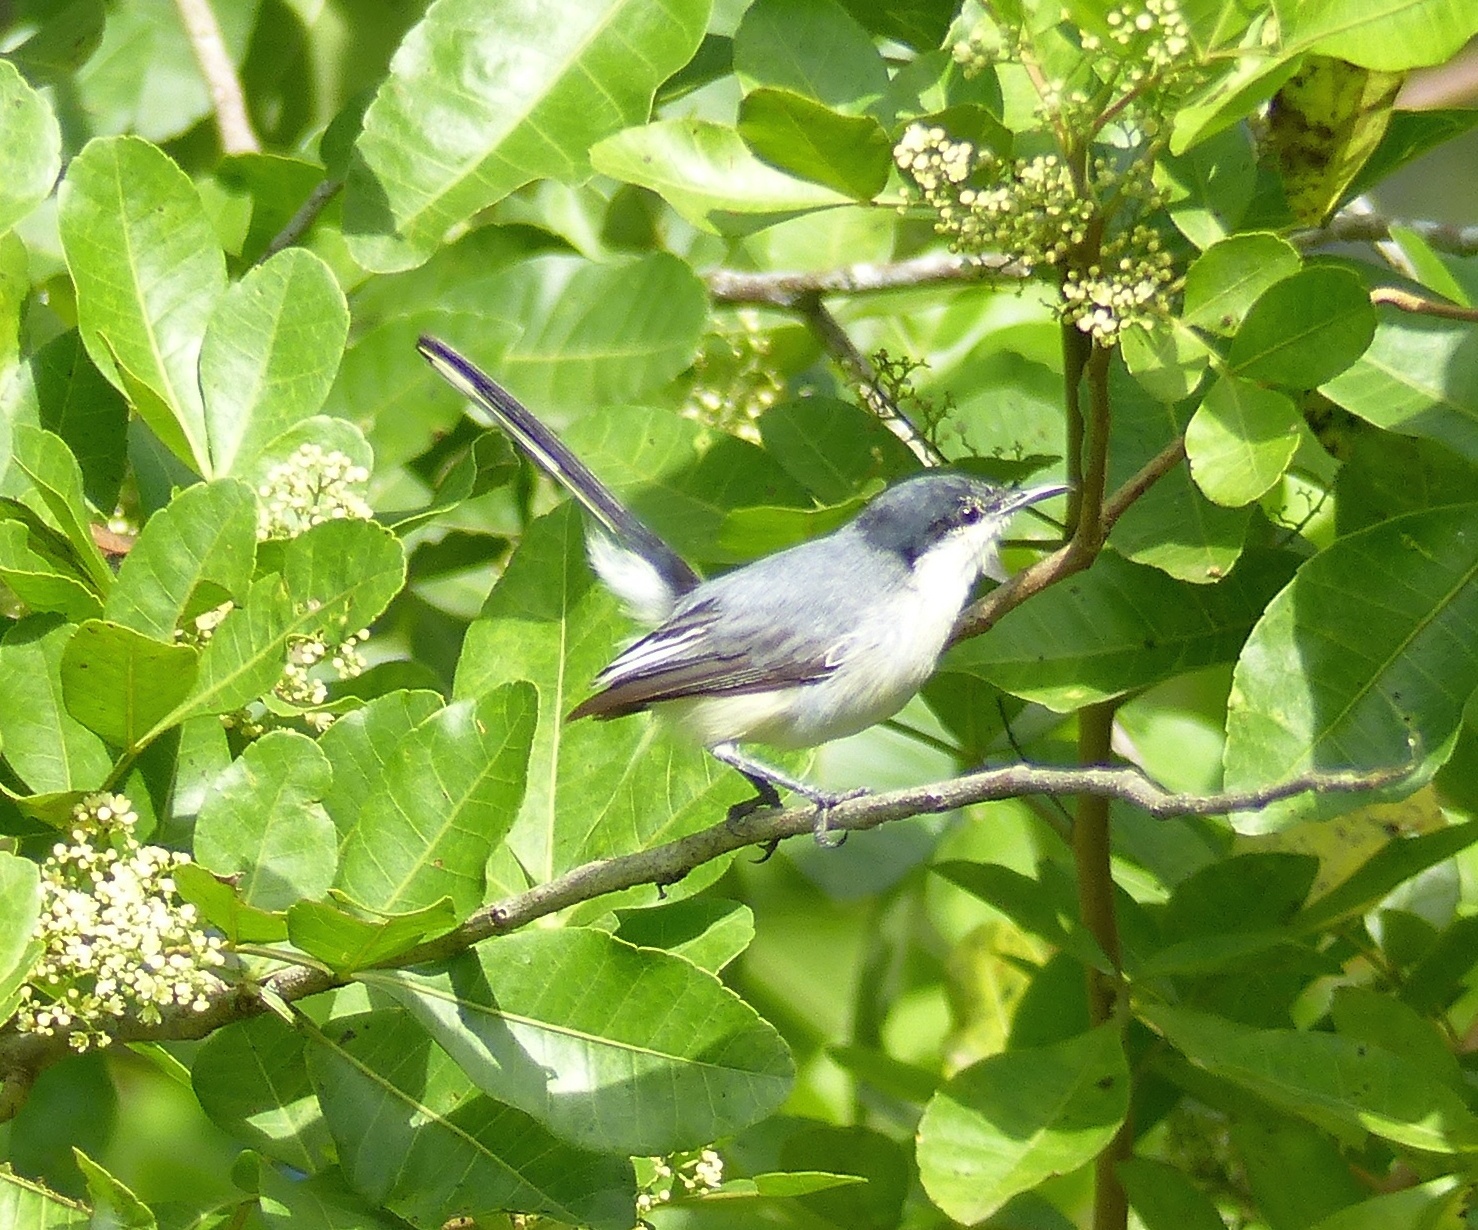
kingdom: Animalia
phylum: Chordata
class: Aves
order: Passeriformes
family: Polioptilidae
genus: Polioptila
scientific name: Polioptila plumbea
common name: Tropical gnatcatcher
